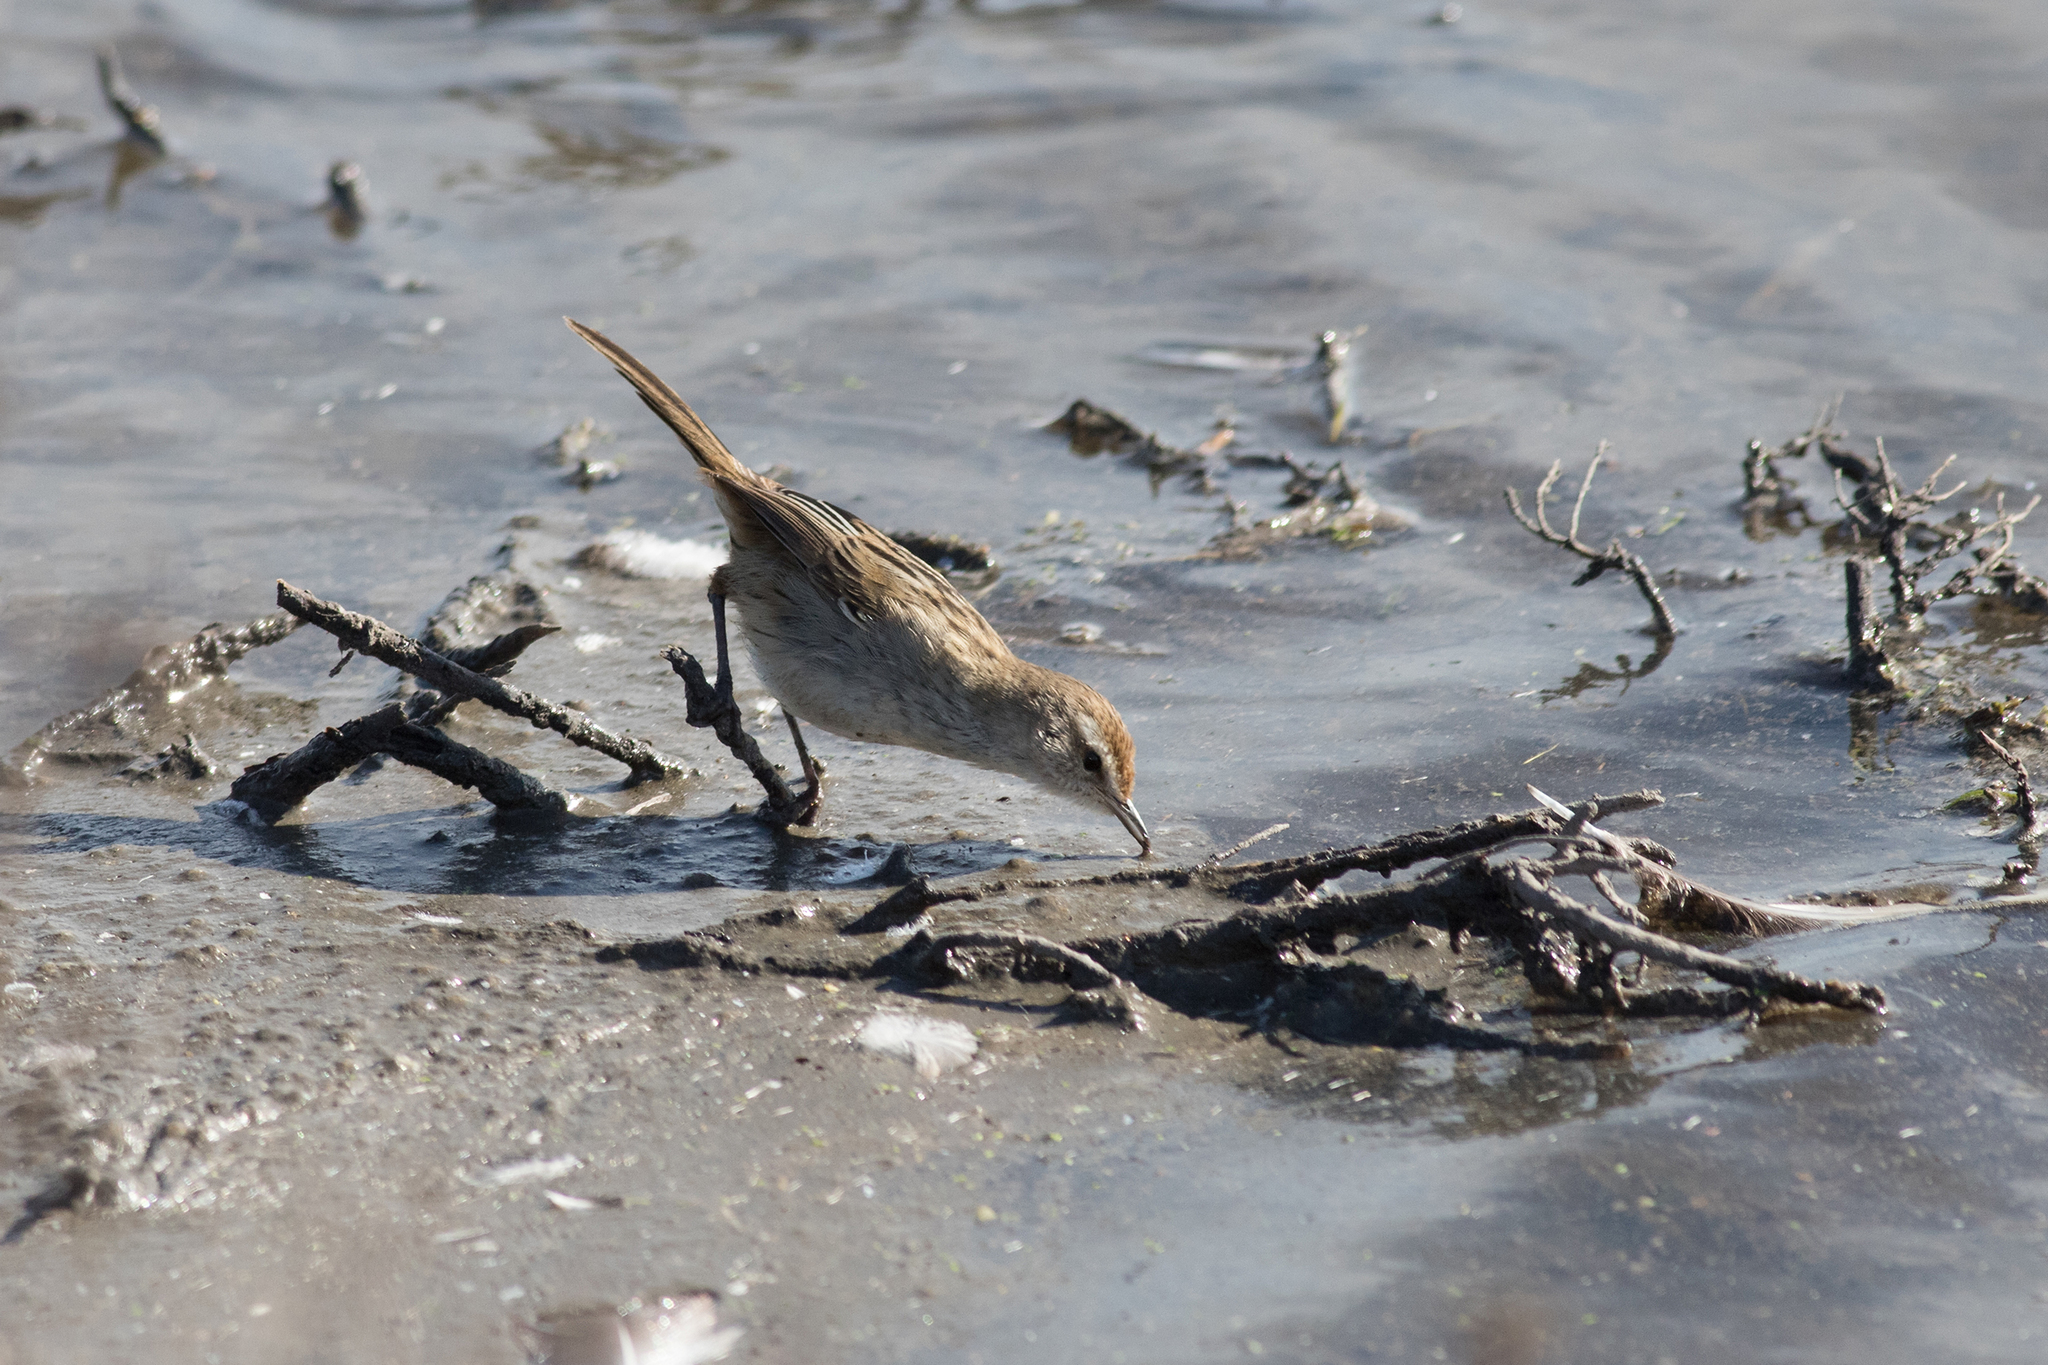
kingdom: Animalia
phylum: Chordata
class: Aves
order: Passeriformes
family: Locustellidae
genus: Megalurus
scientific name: Megalurus gramineus
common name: Little grassbird
